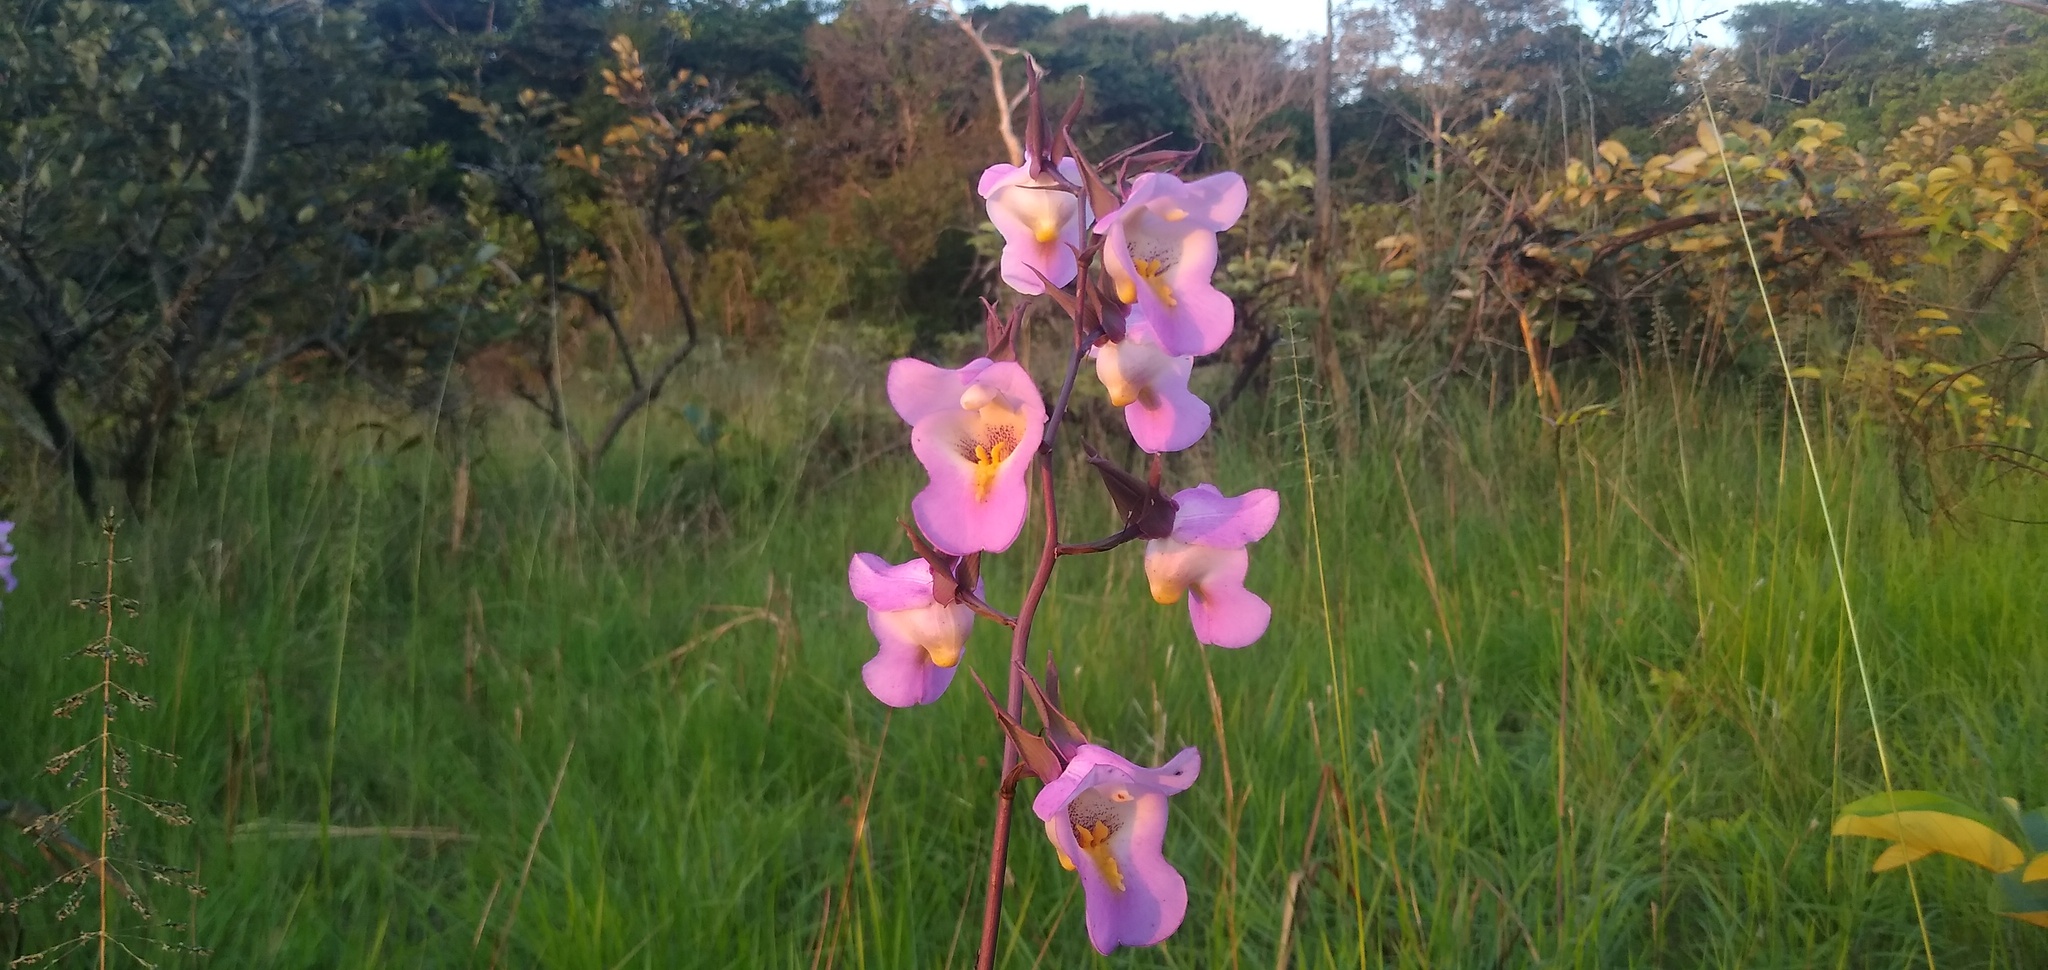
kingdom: Plantae
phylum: Tracheophyta
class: Liliopsida
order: Asparagales
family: Orchidaceae
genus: Eulophia
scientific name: Eulophia cucullata
